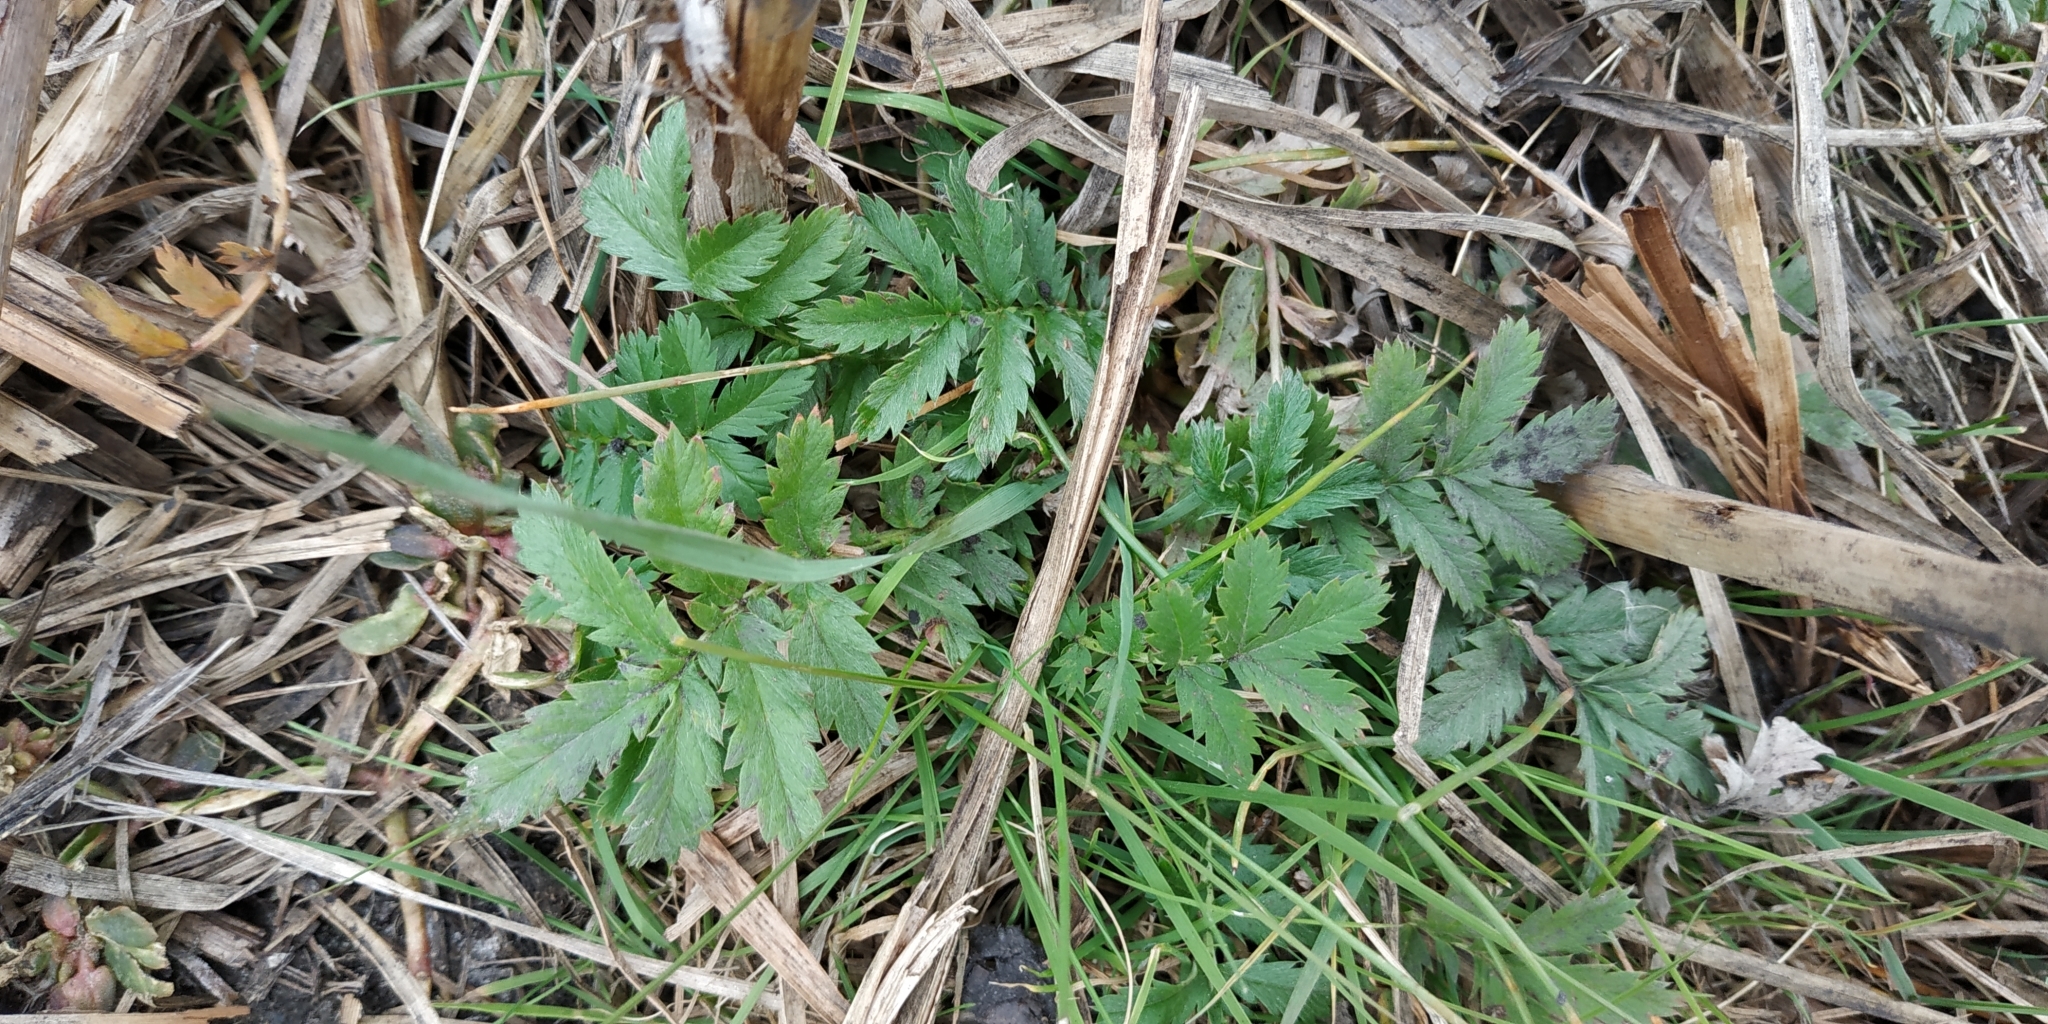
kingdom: Plantae
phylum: Tracheophyta
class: Magnoliopsida
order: Rosales
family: Rosaceae
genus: Argentina
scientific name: Argentina anserina
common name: Common silverweed
